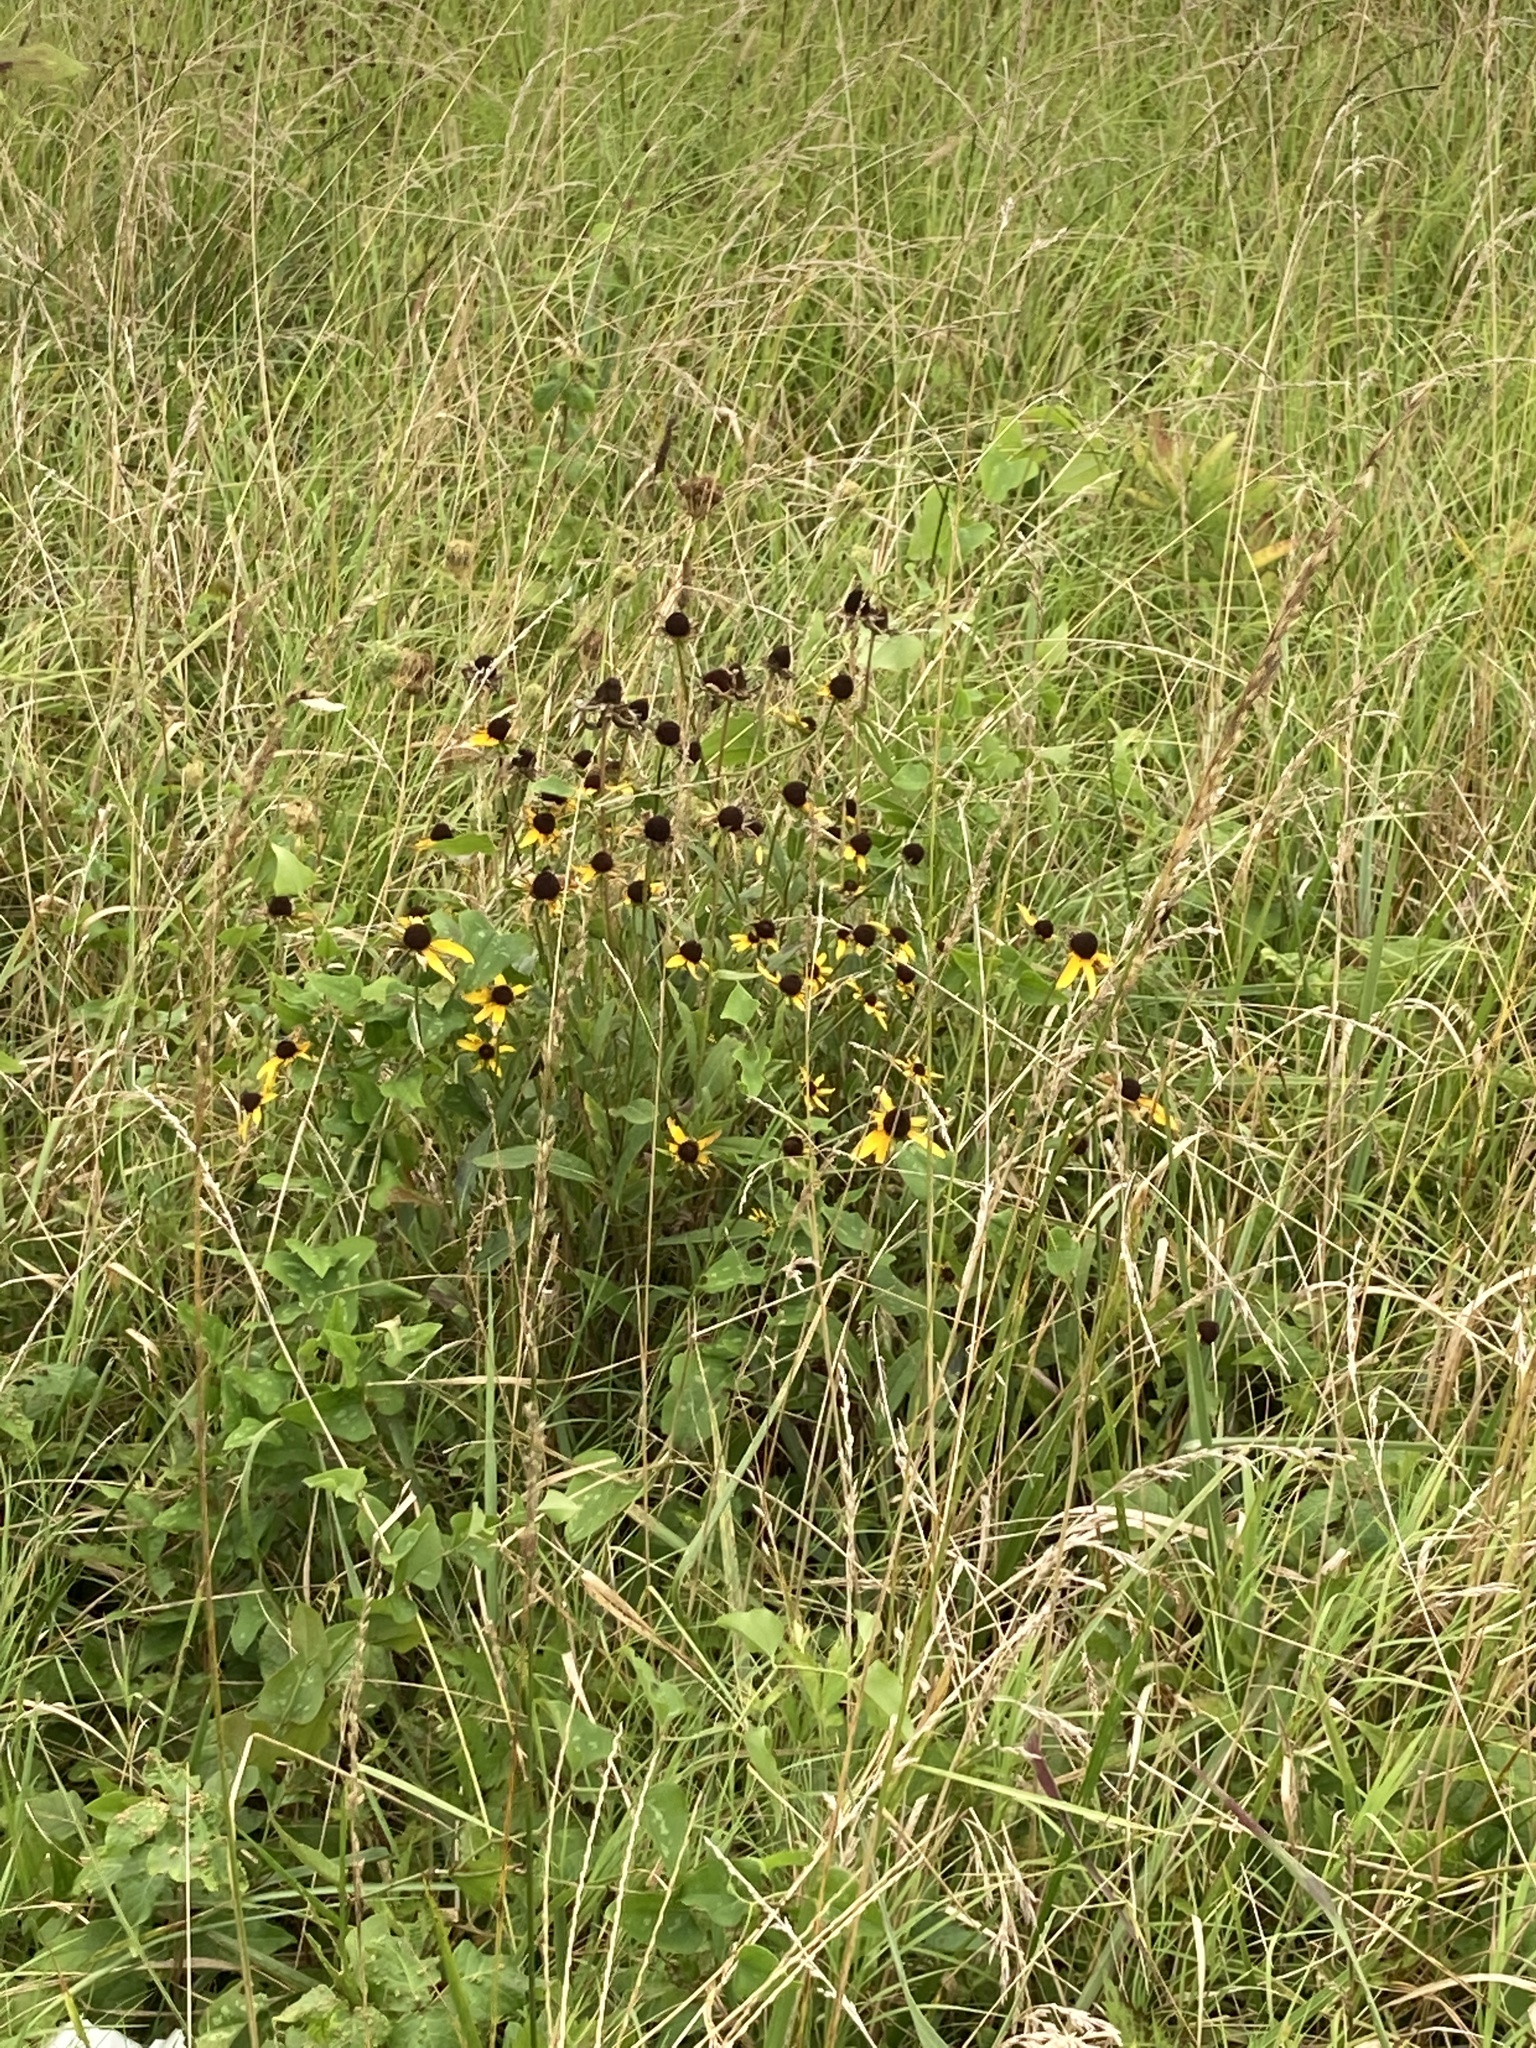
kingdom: Plantae
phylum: Tracheophyta
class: Magnoliopsida
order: Asterales
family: Asteraceae
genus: Rudbeckia
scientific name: Rudbeckia hirta
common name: Black-eyed-susan
